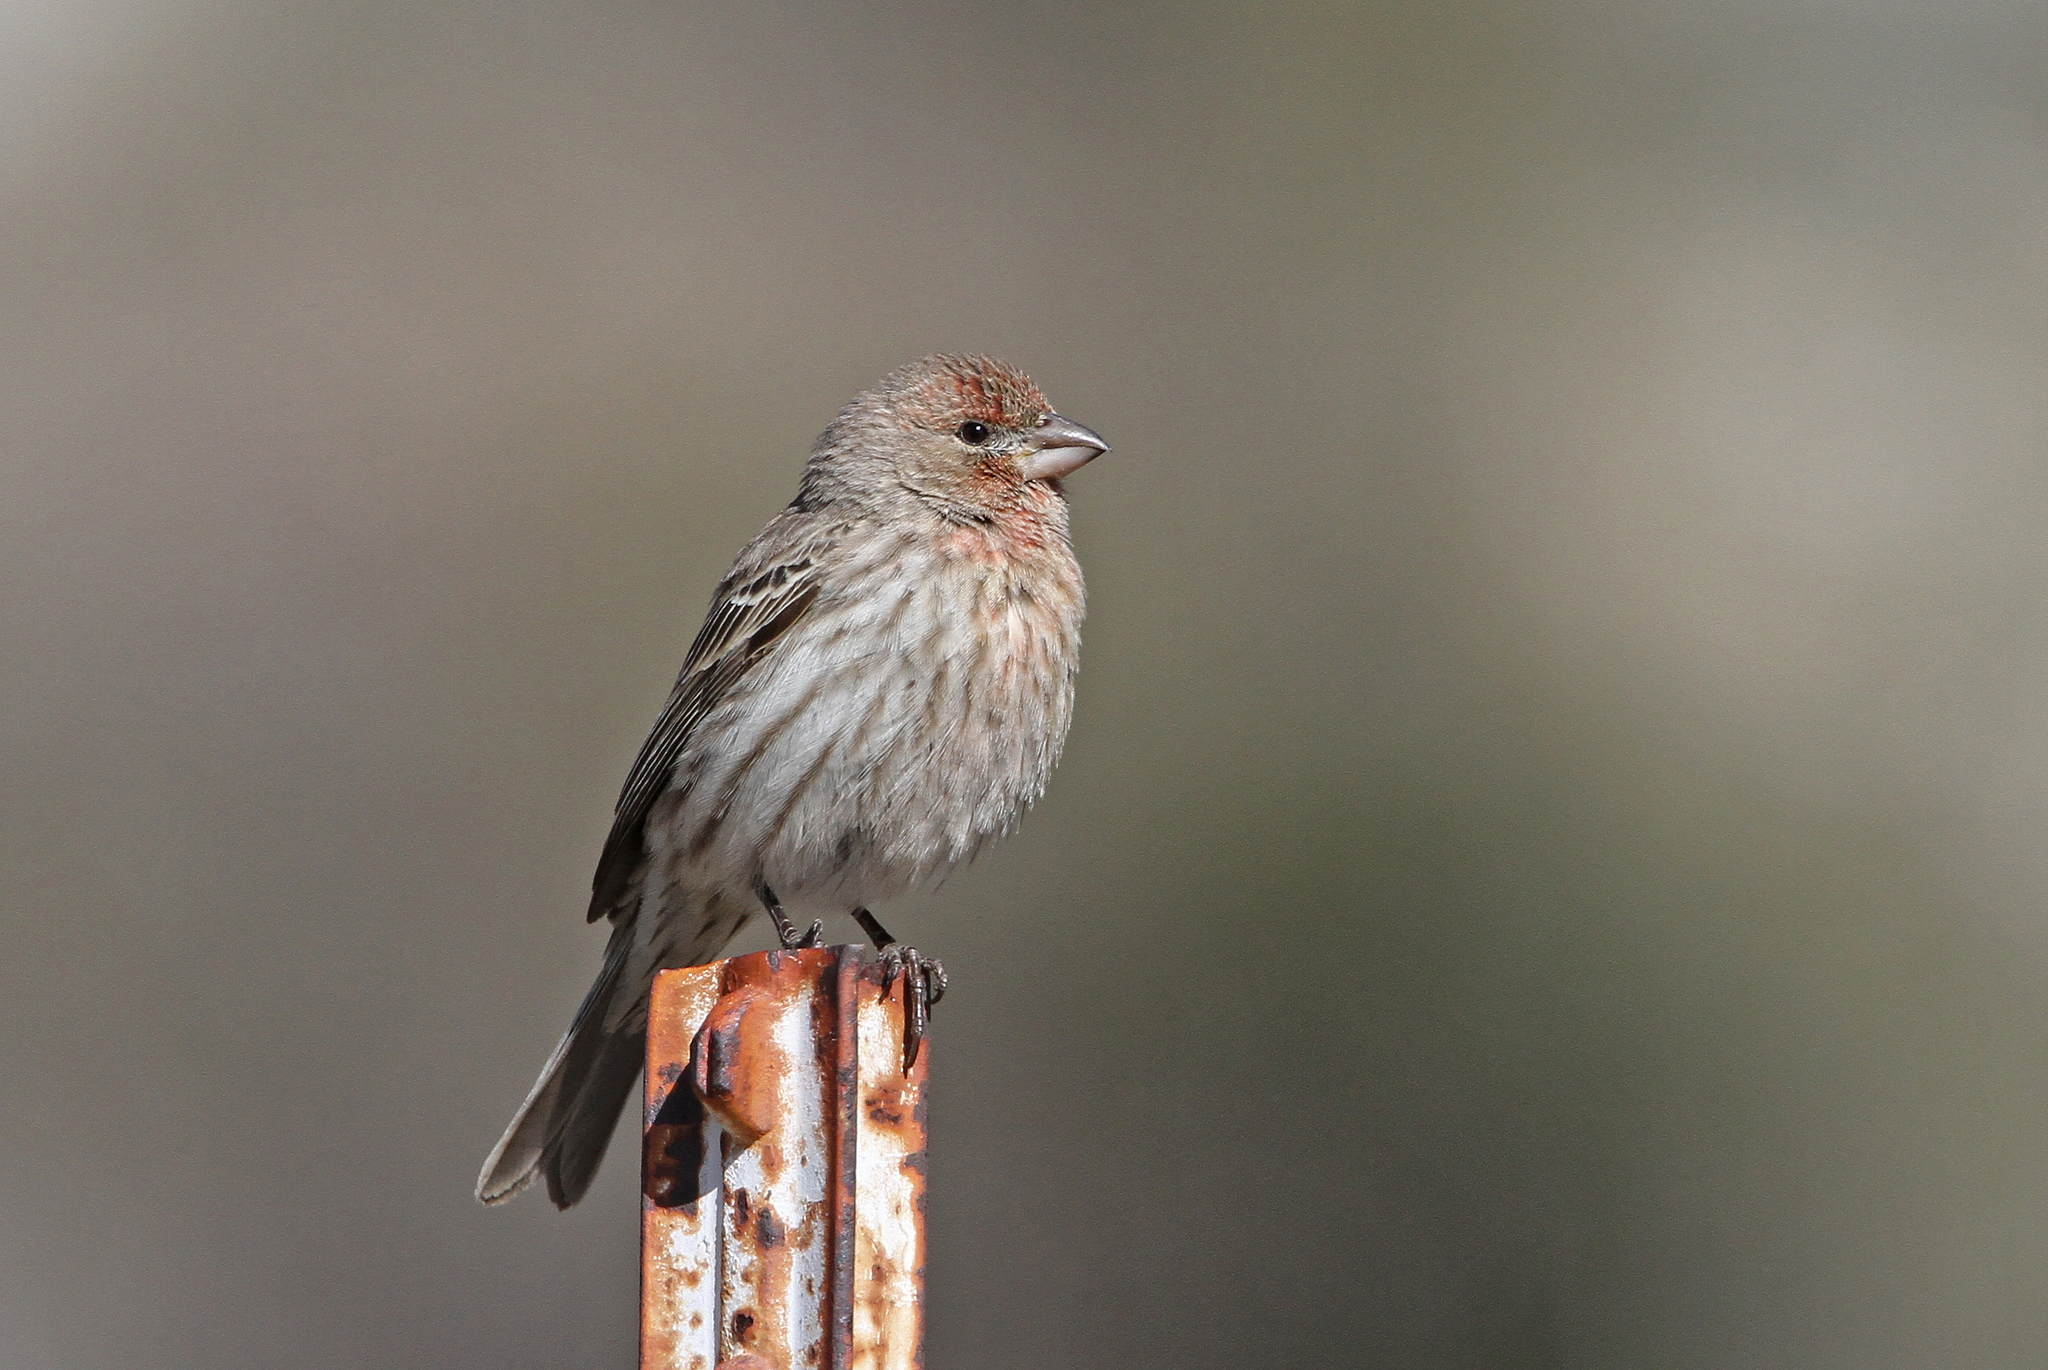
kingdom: Animalia
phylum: Chordata
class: Aves
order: Passeriformes
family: Fringillidae
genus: Haemorhous
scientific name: Haemorhous mexicanus
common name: House finch
